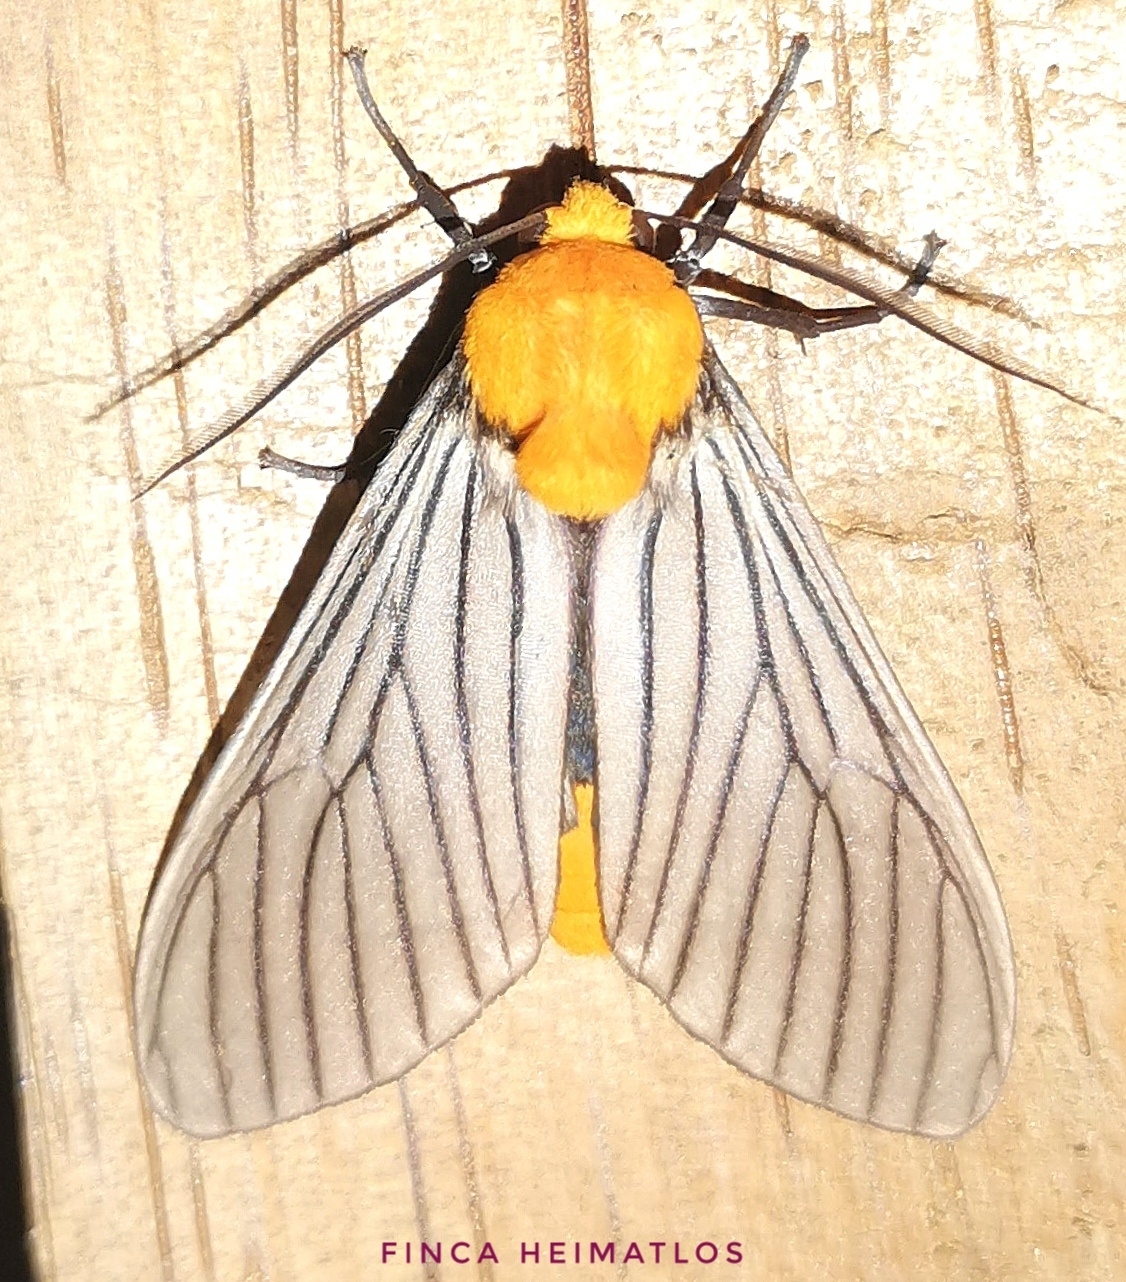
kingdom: Animalia
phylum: Arthropoda
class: Insecta
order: Lepidoptera
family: Erebidae
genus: Pseudischnocampa
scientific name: Pseudischnocampa humosa
